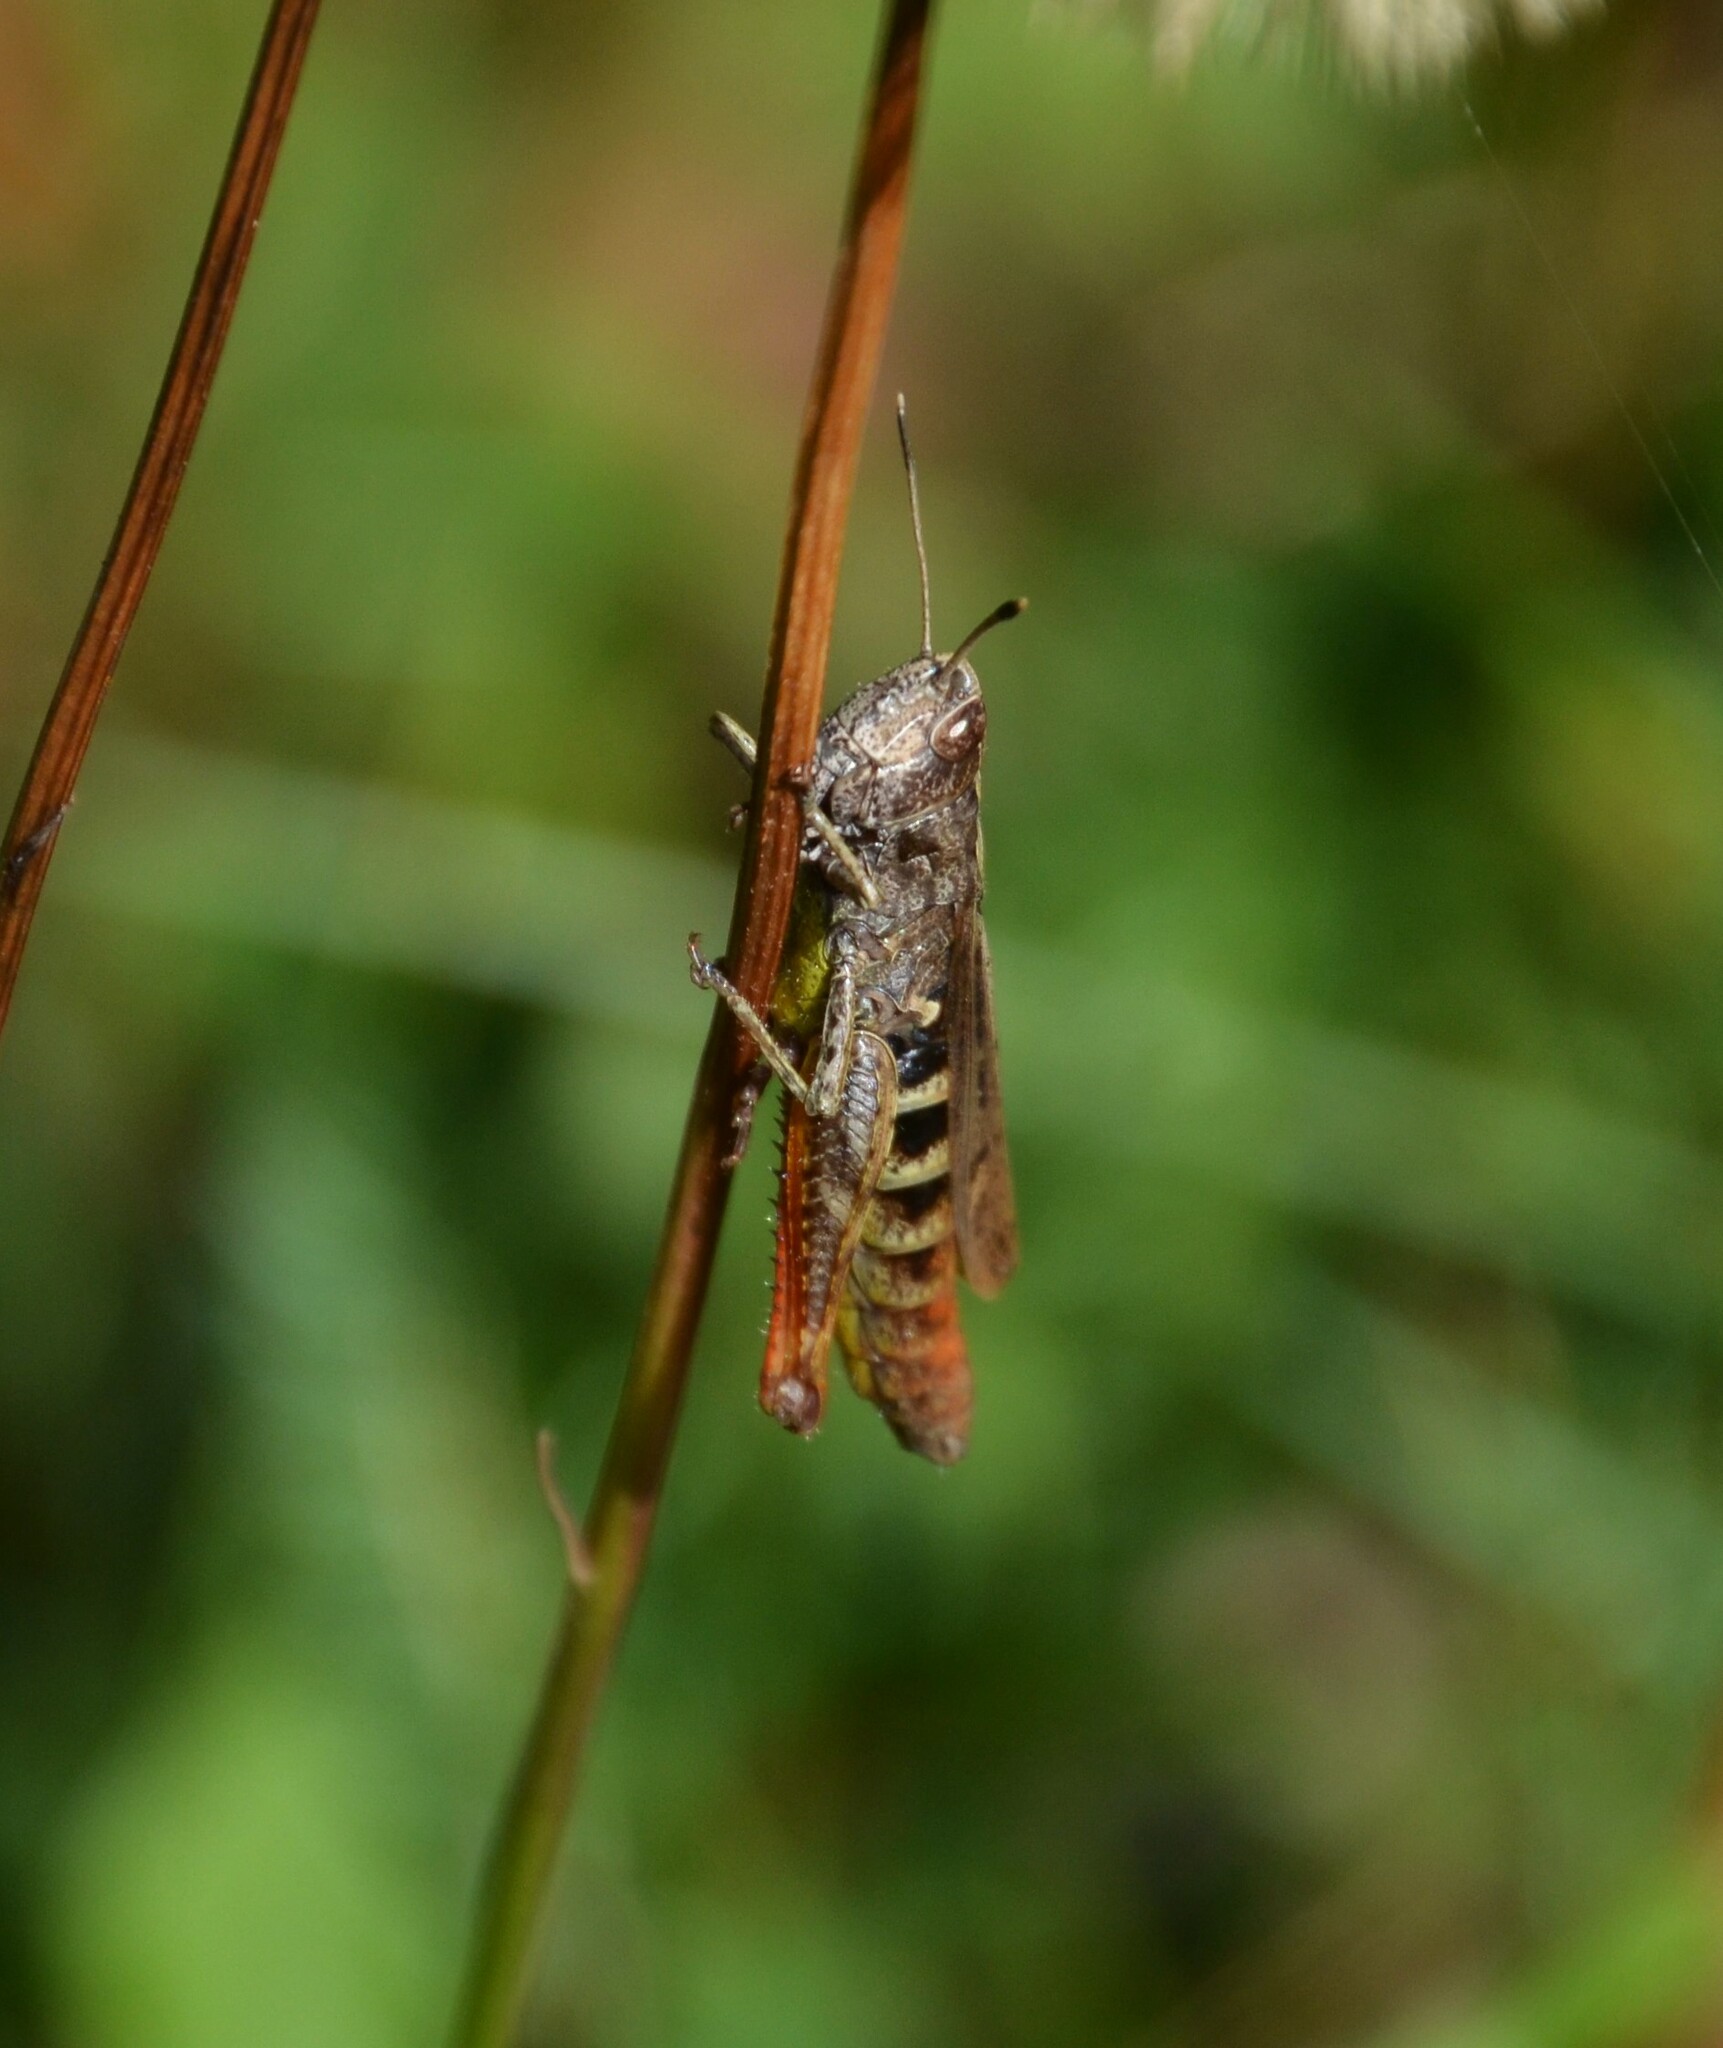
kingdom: Animalia
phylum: Arthropoda
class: Insecta
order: Orthoptera
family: Acrididae
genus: Gomphocerippus
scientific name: Gomphocerippus rufus
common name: Rufous grasshopper
